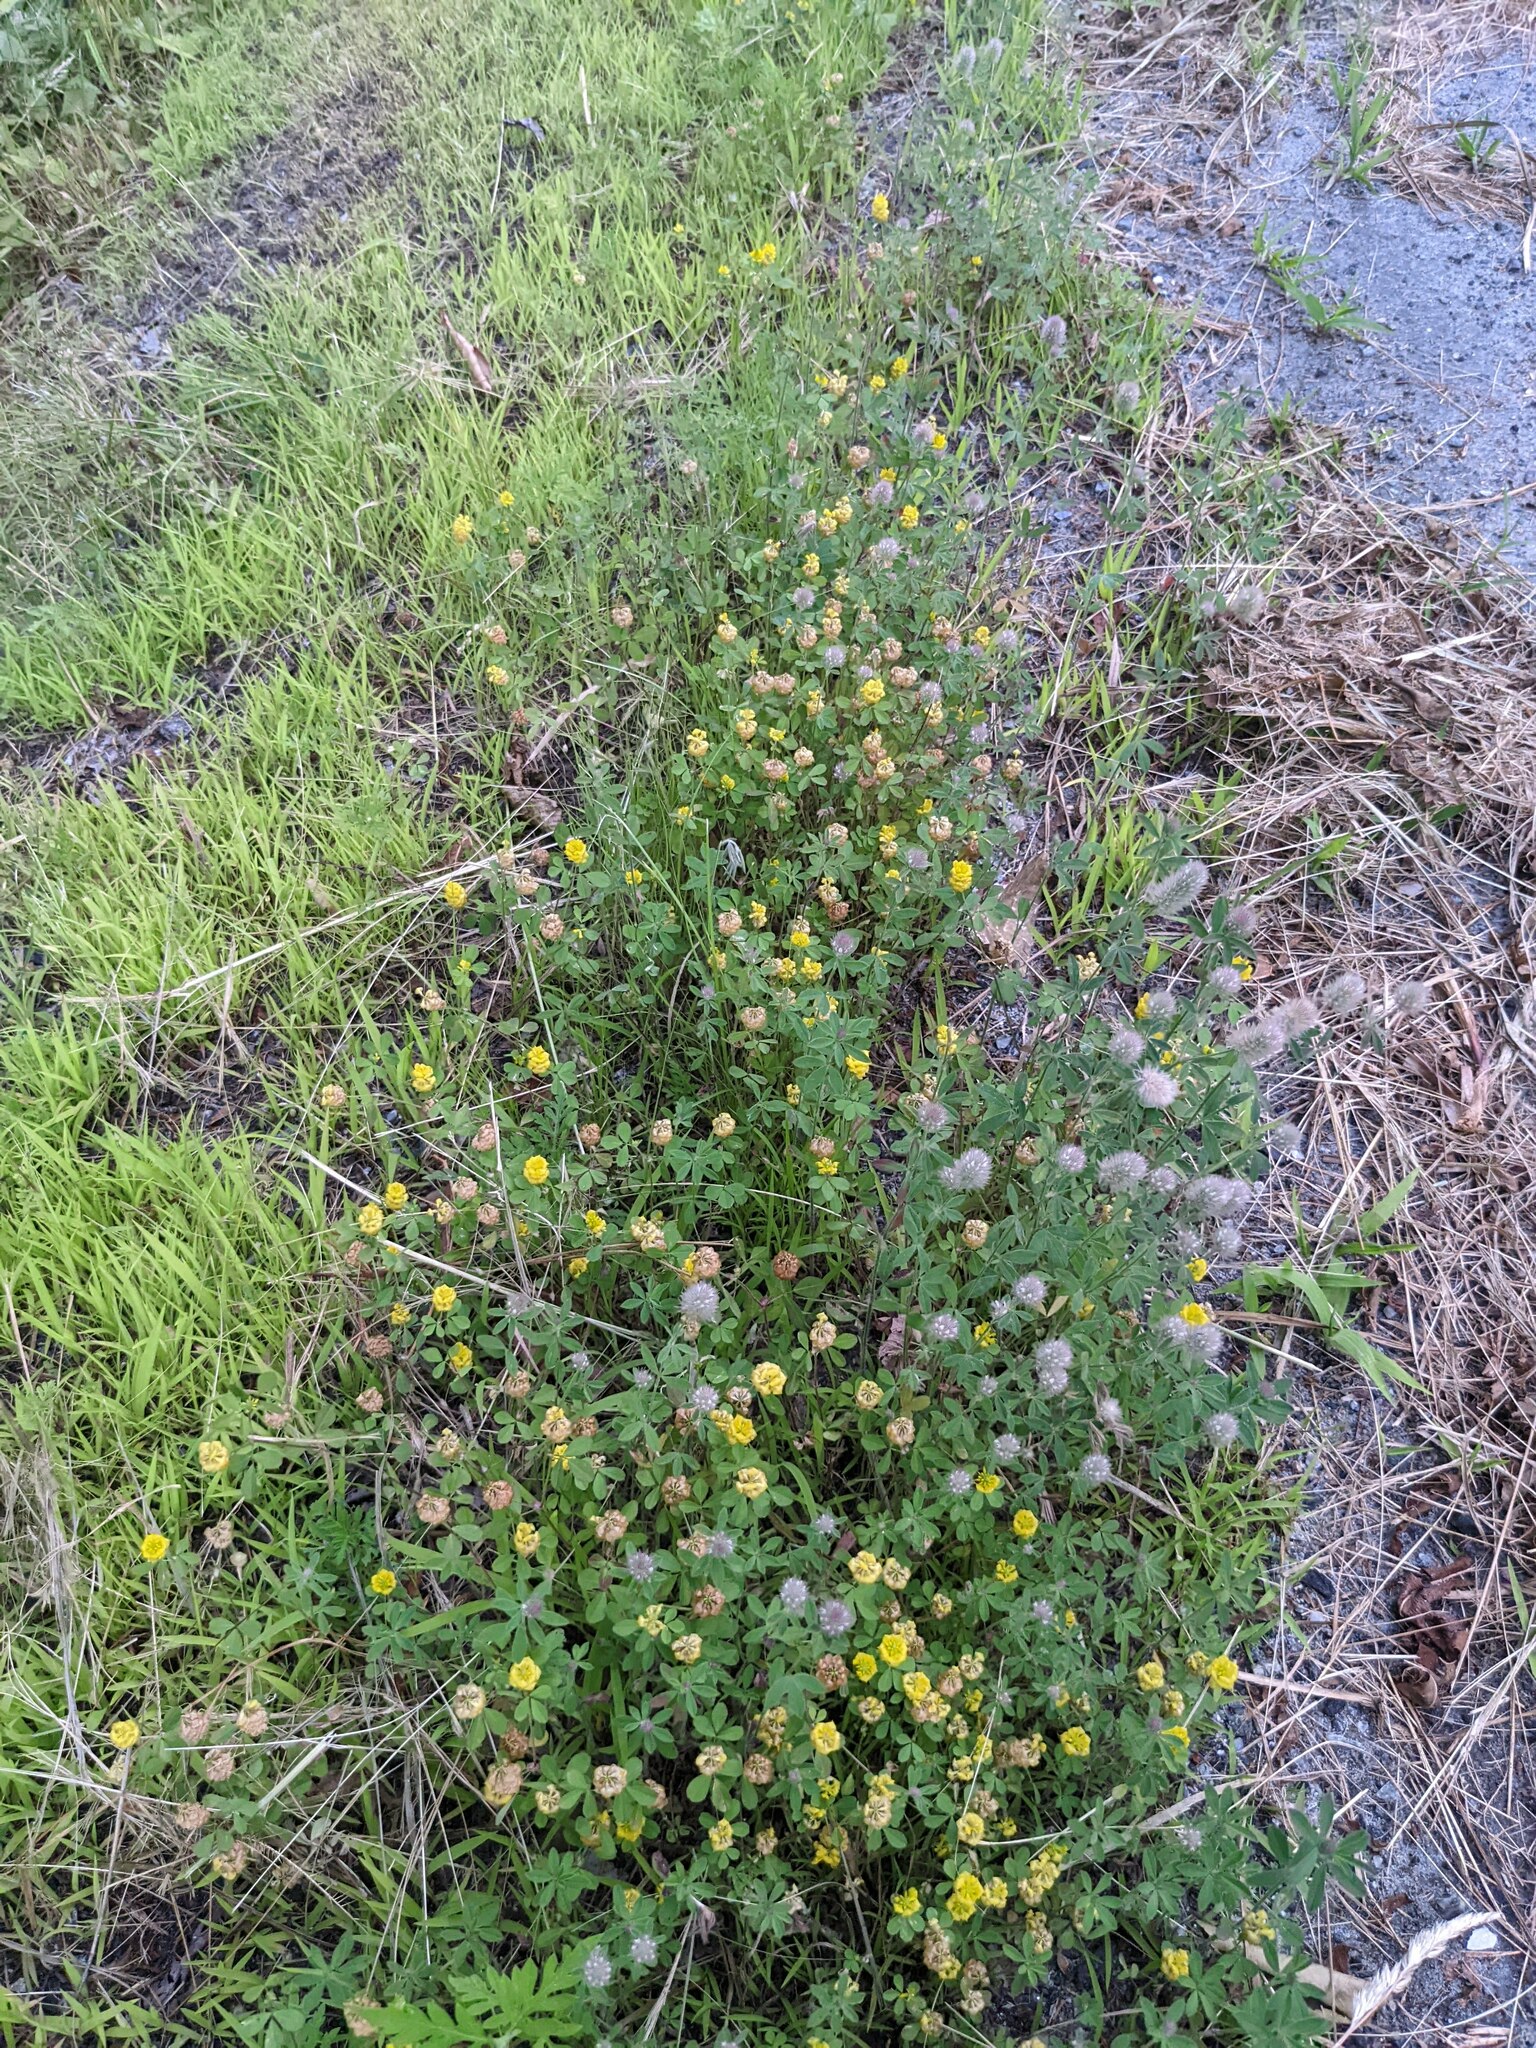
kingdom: Plantae
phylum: Tracheophyta
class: Magnoliopsida
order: Fabales
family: Fabaceae
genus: Trifolium
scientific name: Trifolium campestre
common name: Field clover
